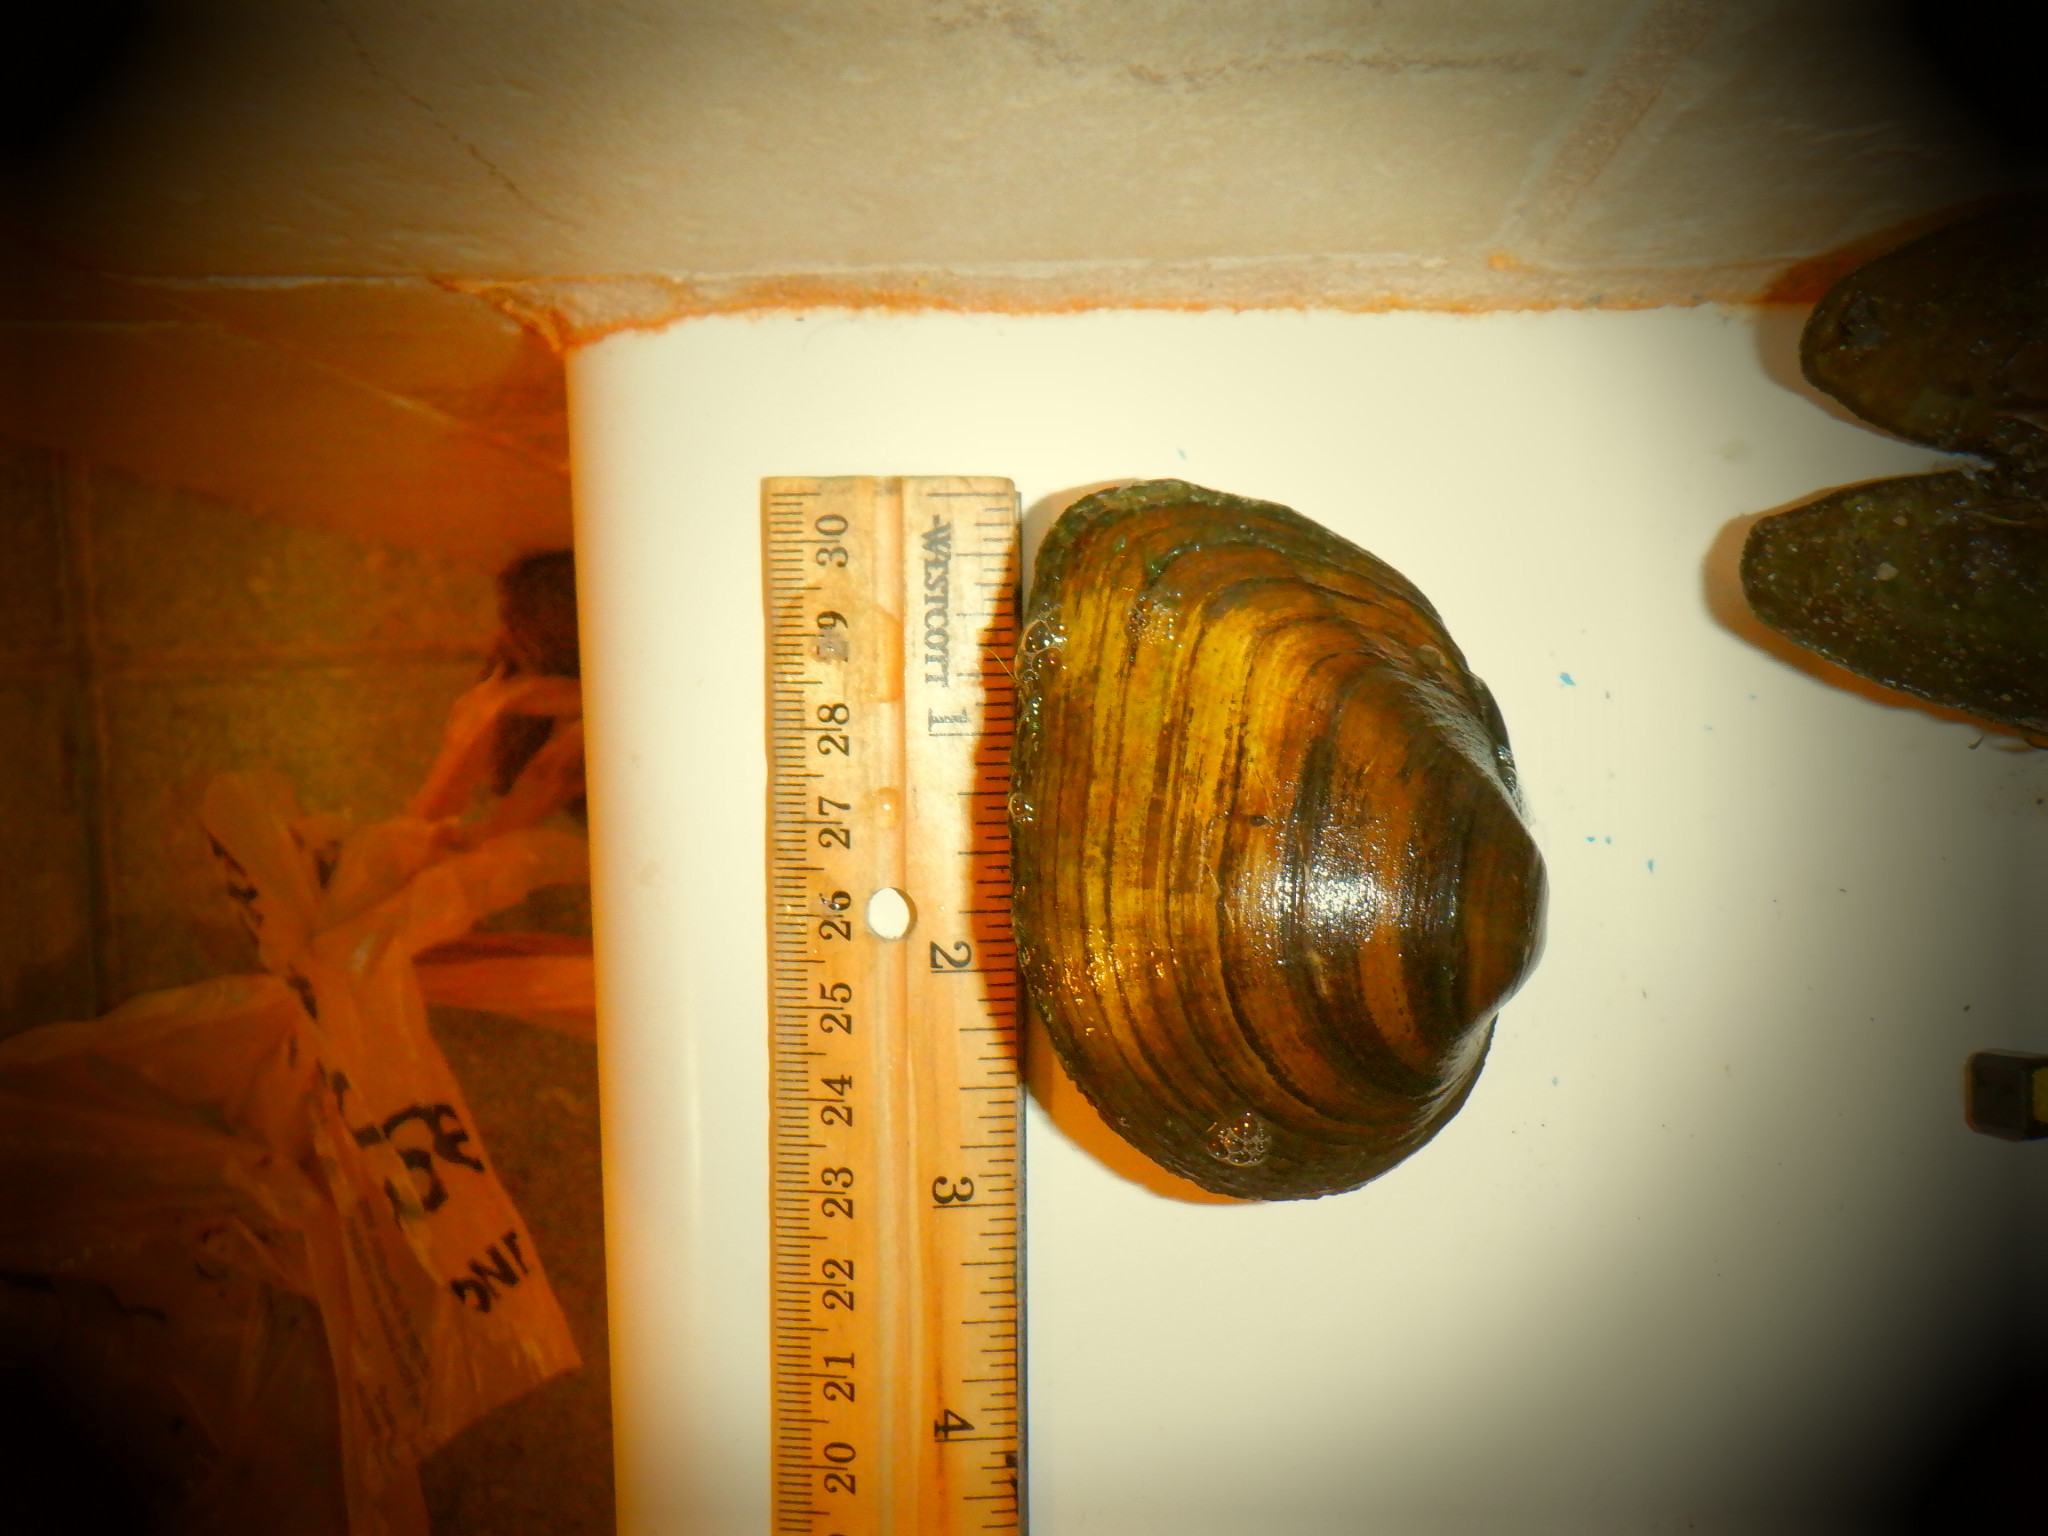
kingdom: Animalia
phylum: Mollusca
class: Bivalvia
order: Unionida
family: Unionidae
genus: Fusconaia
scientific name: Fusconaia flava
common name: Wabash pigtoe
